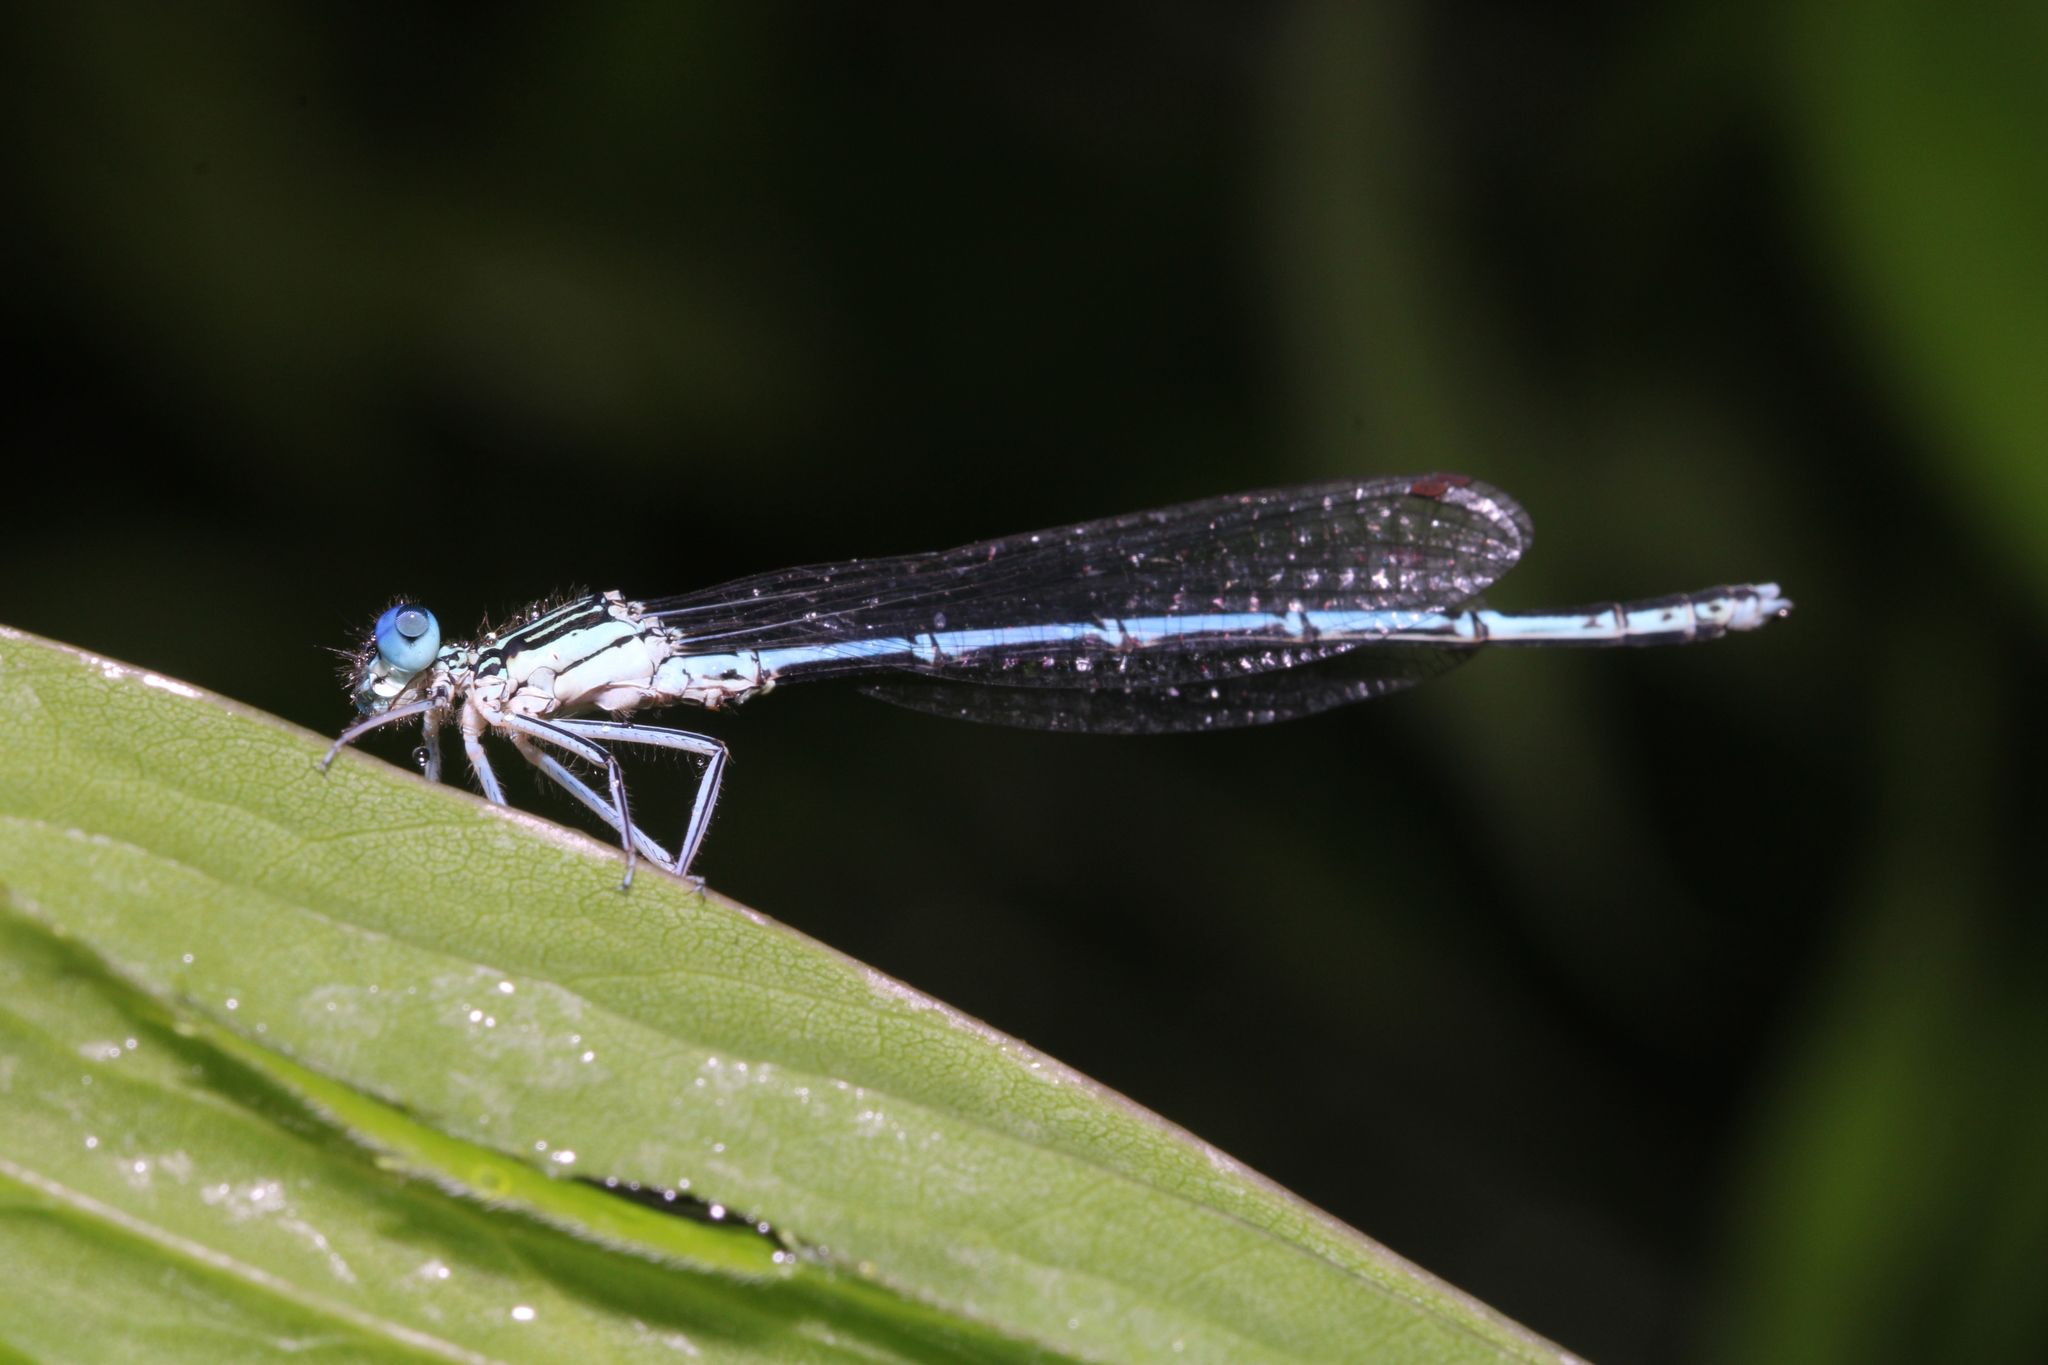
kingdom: Animalia
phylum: Arthropoda
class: Insecta
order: Odonata
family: Platycnemididae
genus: Platycnemis
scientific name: Platycnemis pennipes
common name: White-legged damselfly
